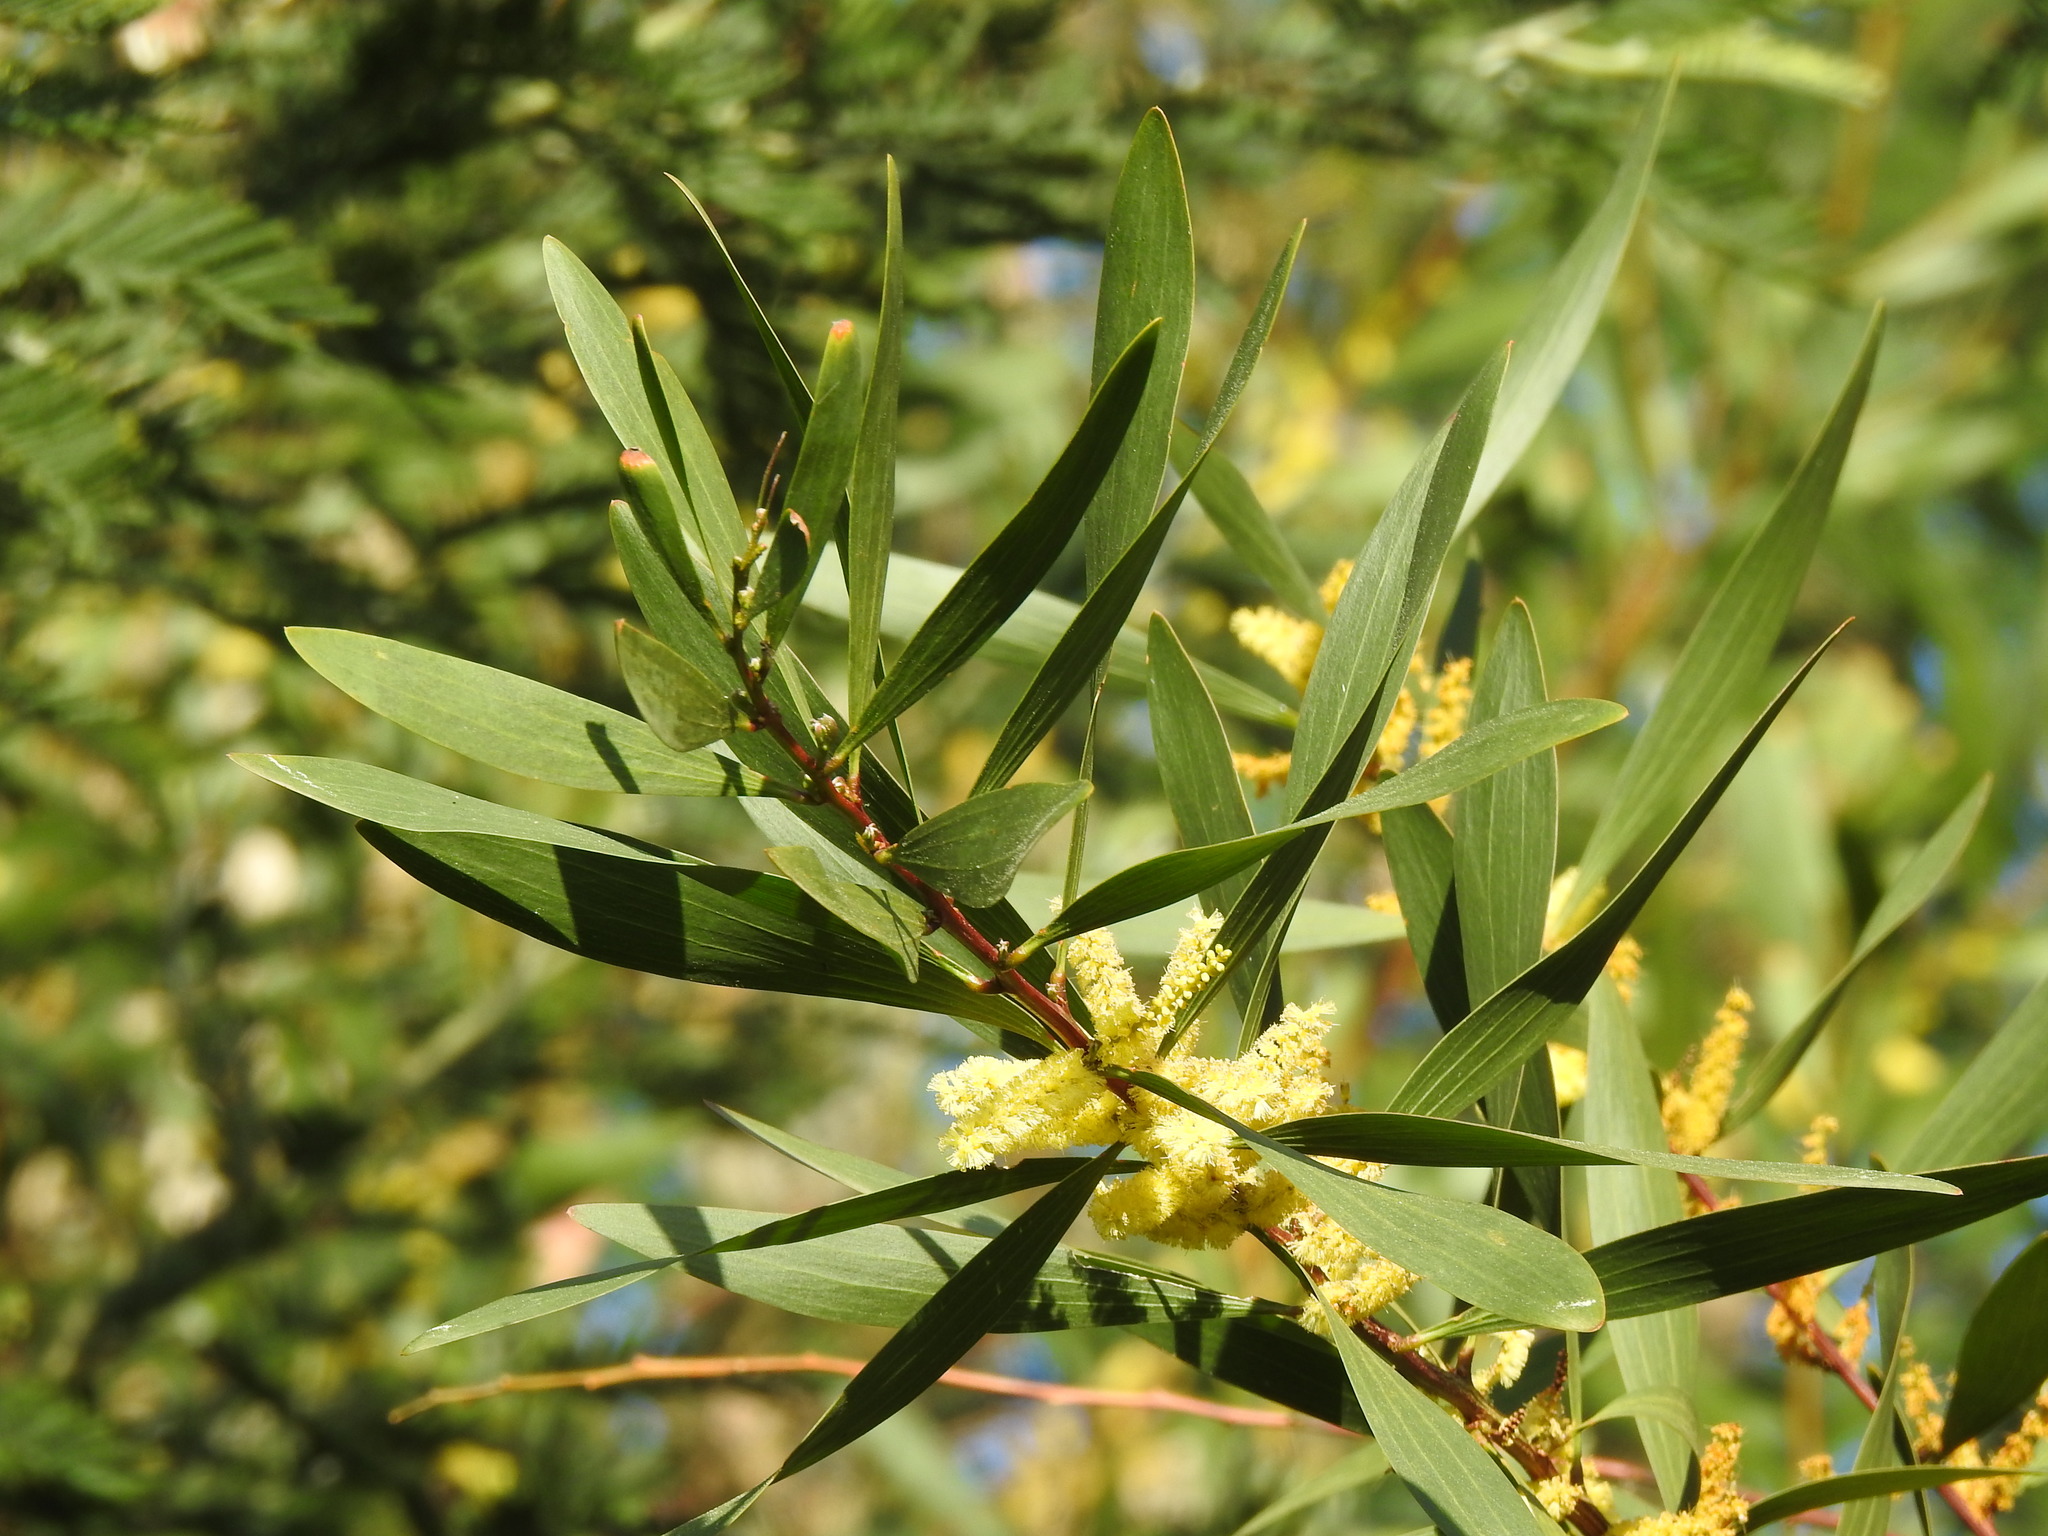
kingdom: Plantae
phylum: Tracheophyta
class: Magnoliopsida
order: Fabales
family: Fabaceae
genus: Acacia
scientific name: Acacia longifolia
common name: Sydney golden wattle
